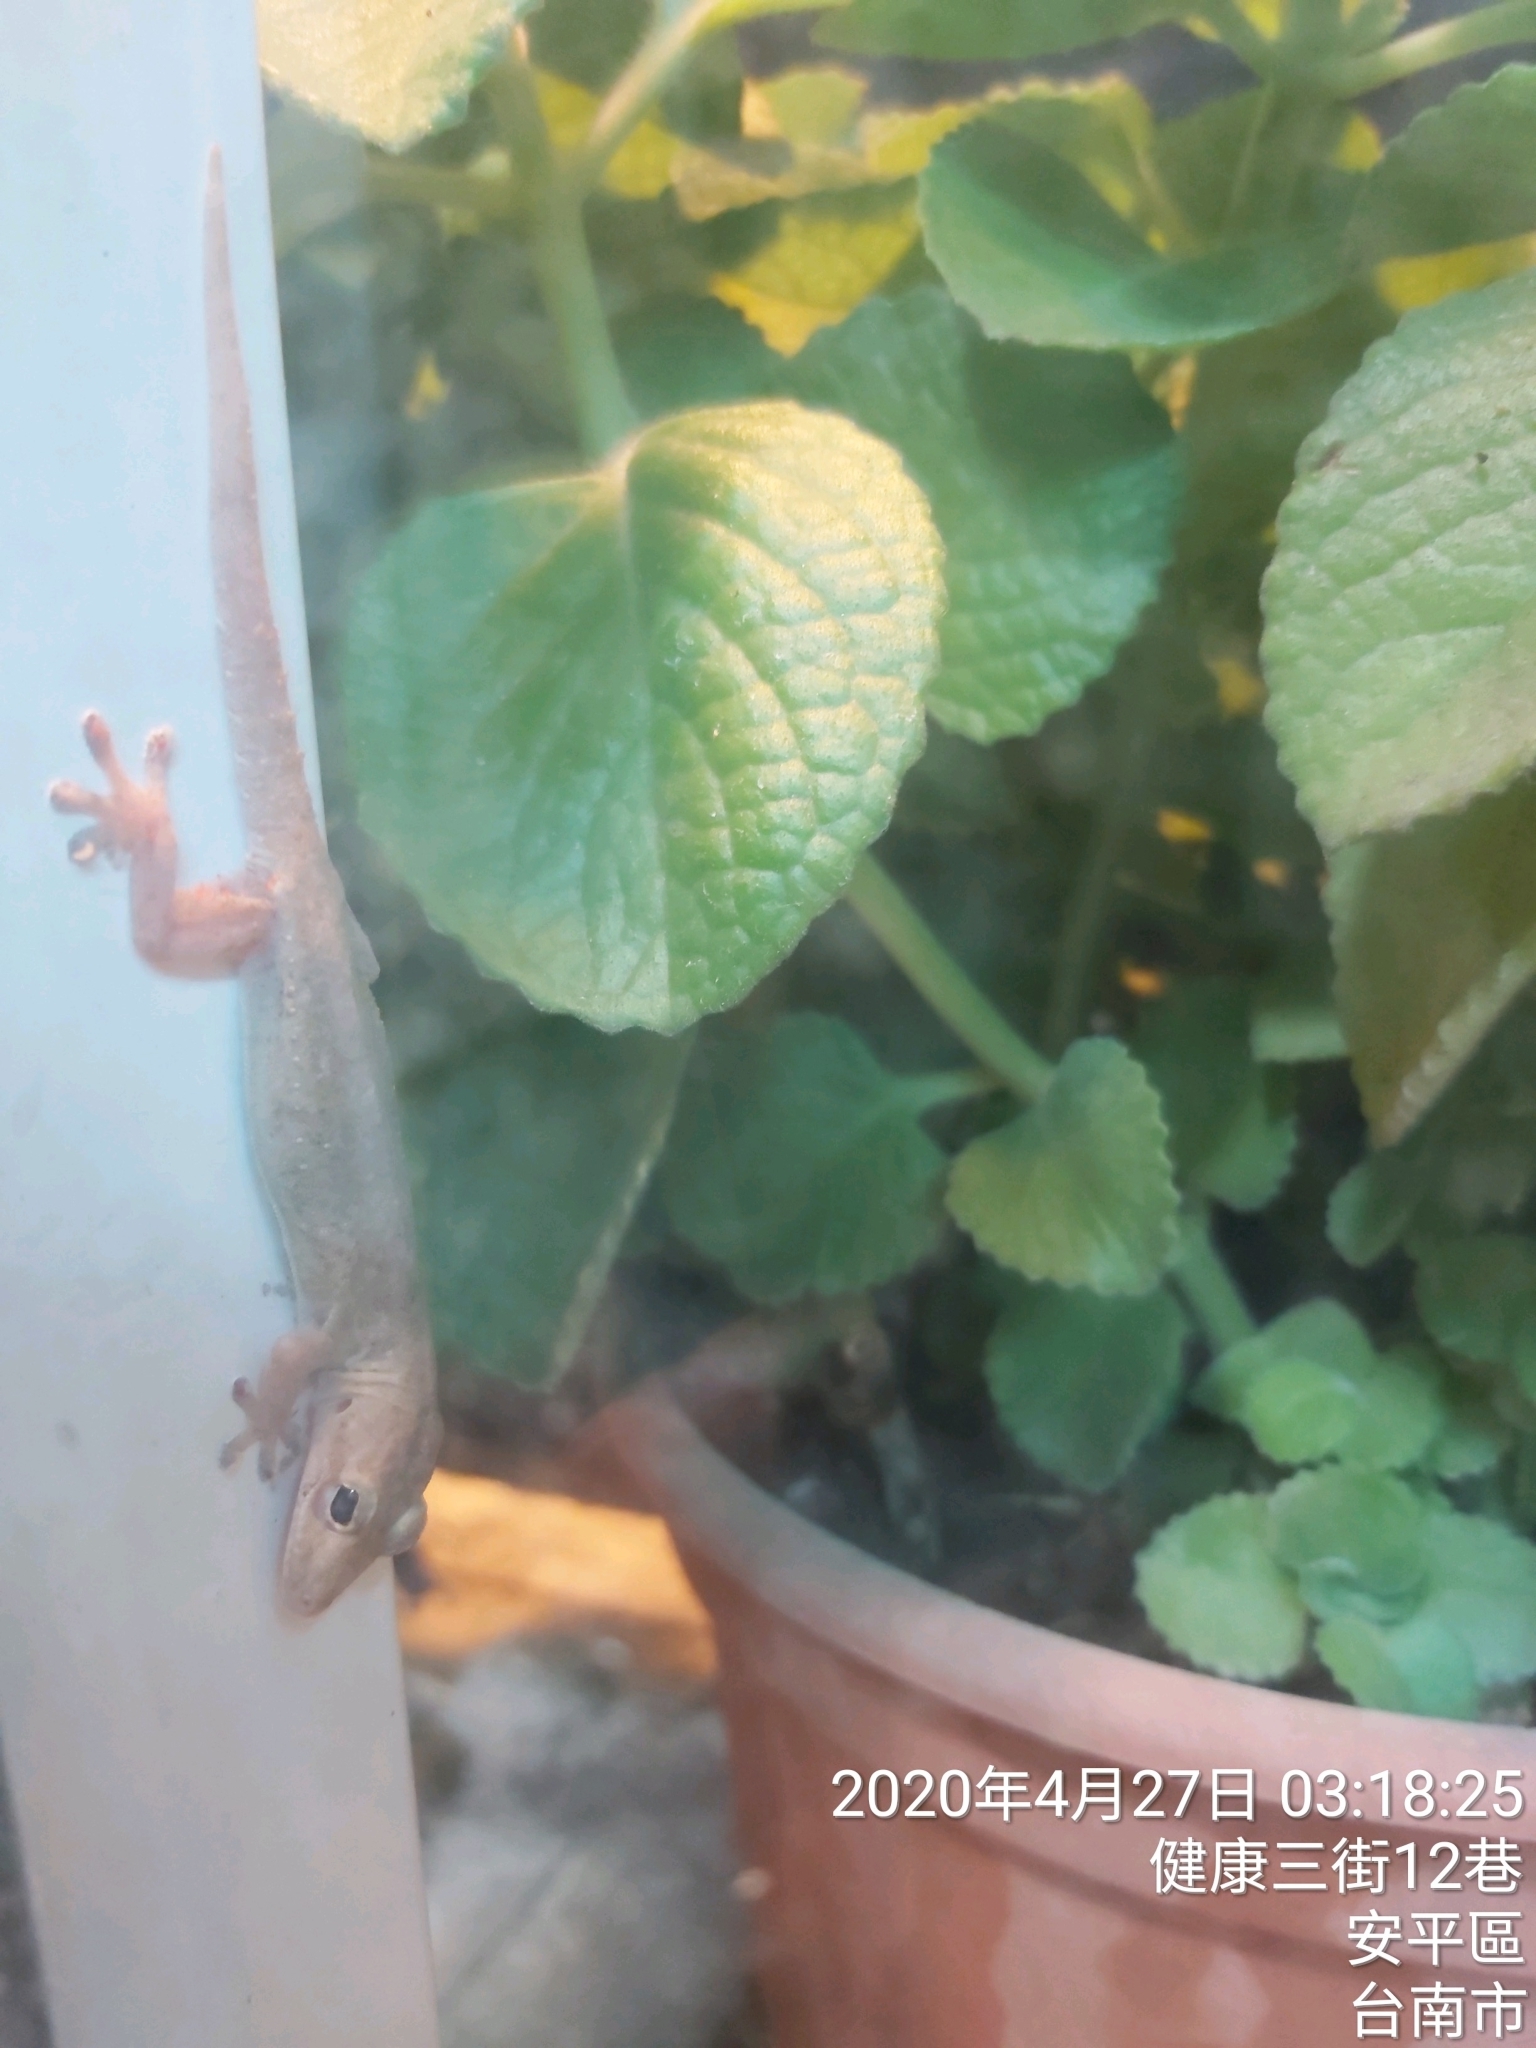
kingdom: Animalia
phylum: Chordata
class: Squamata
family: Gekkonidae
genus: Hemidactylus
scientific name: Hemidactylus frenatus
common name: Common house gecko
